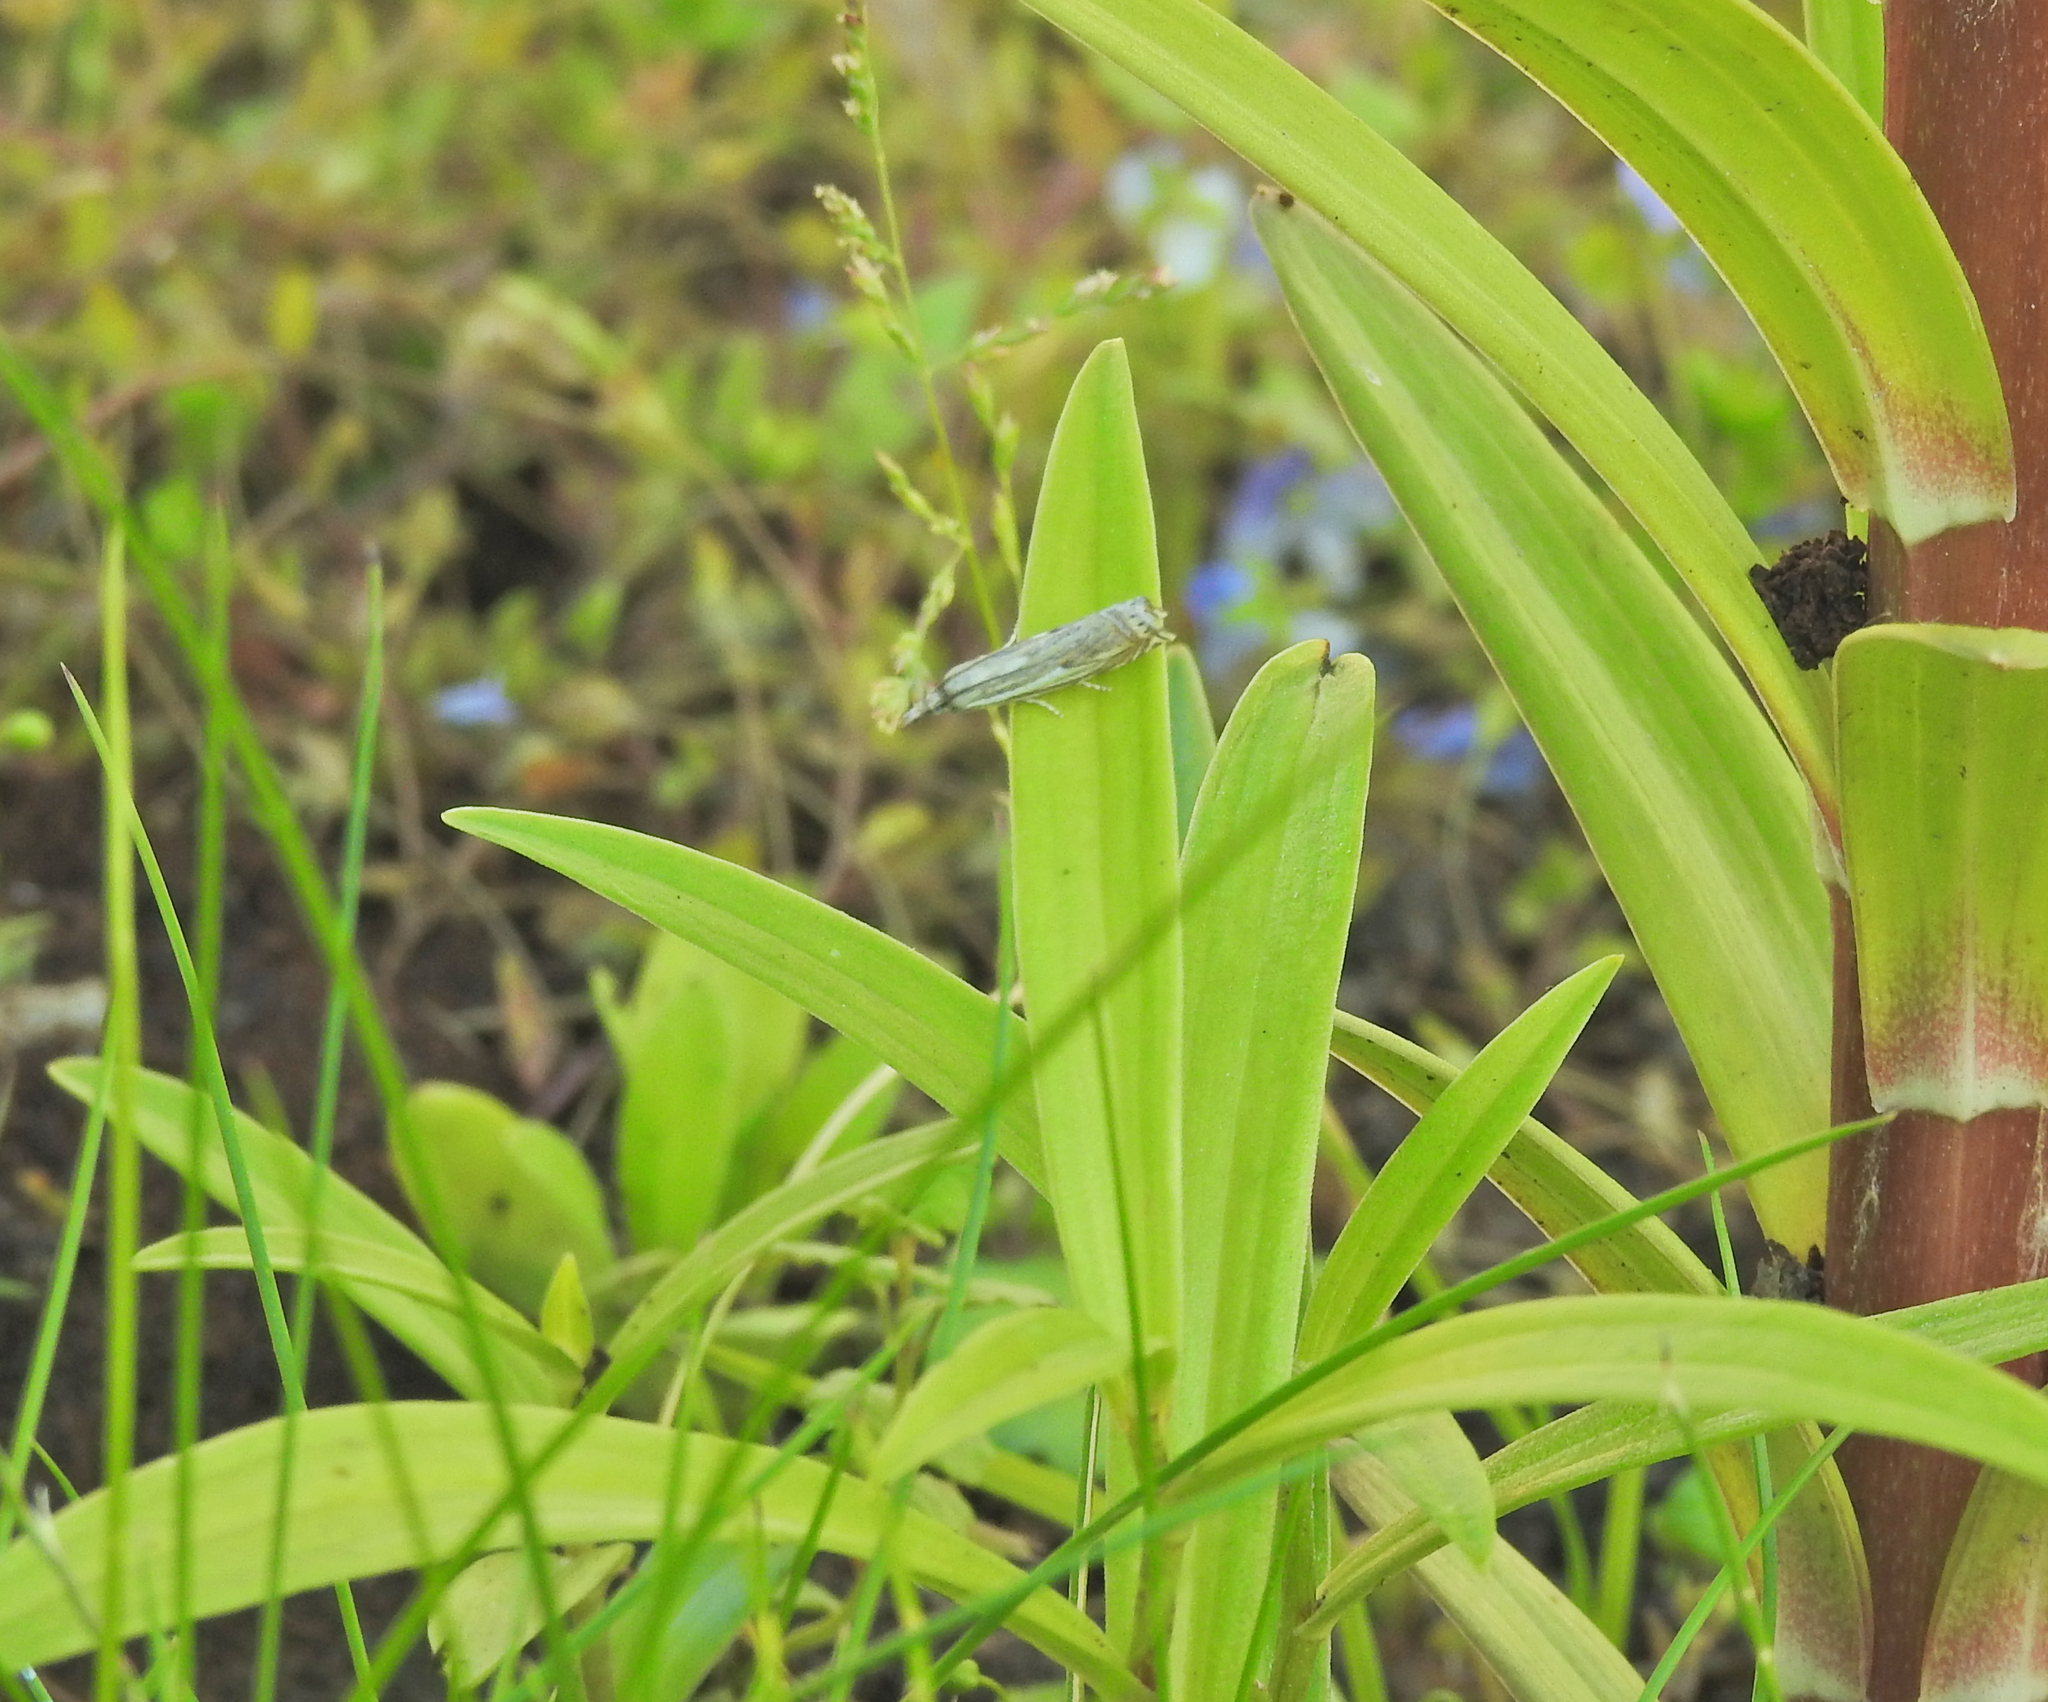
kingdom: Animalia
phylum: Arthropoda
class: Insecta
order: Lepidoptera
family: Crambidae
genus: Crambus
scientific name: Crambus nemorella
